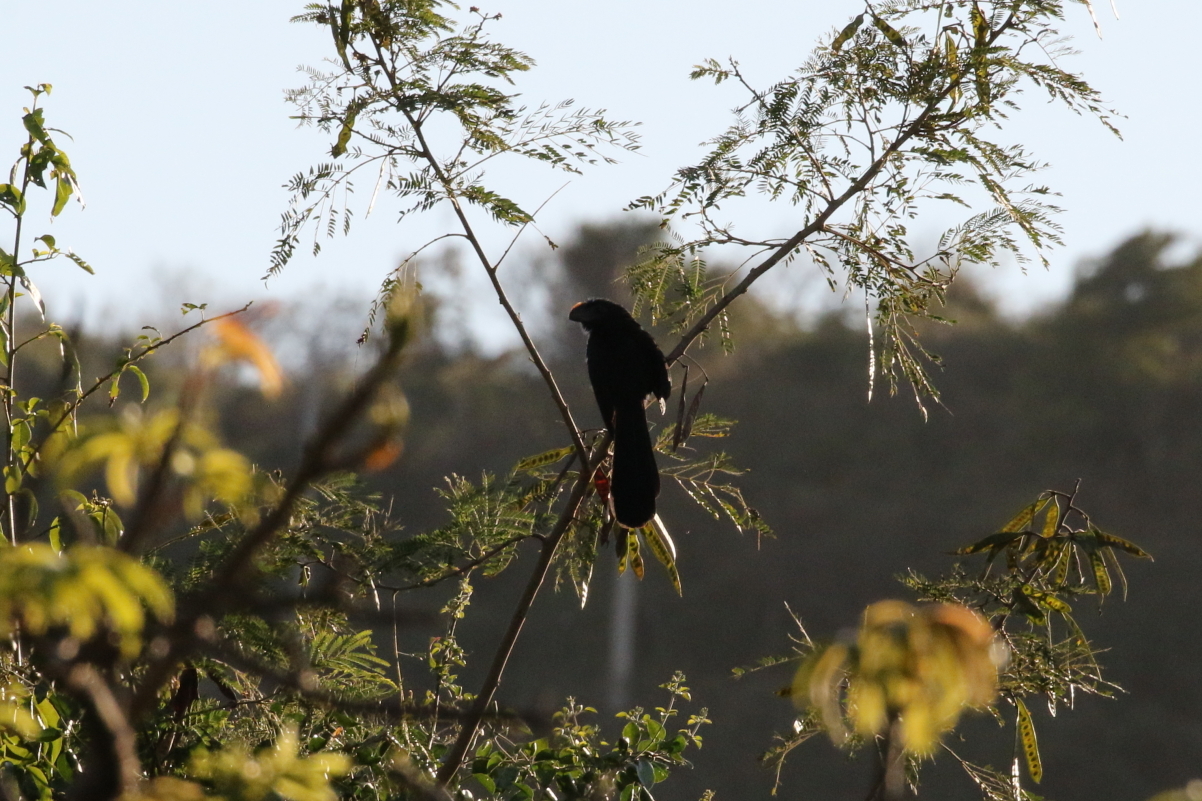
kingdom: Animalia
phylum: Chordata
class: Aves
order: Cuculiformes
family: Cuculidae
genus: Crotophaga
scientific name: Crotophaga ani
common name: Smooth-billed ani
